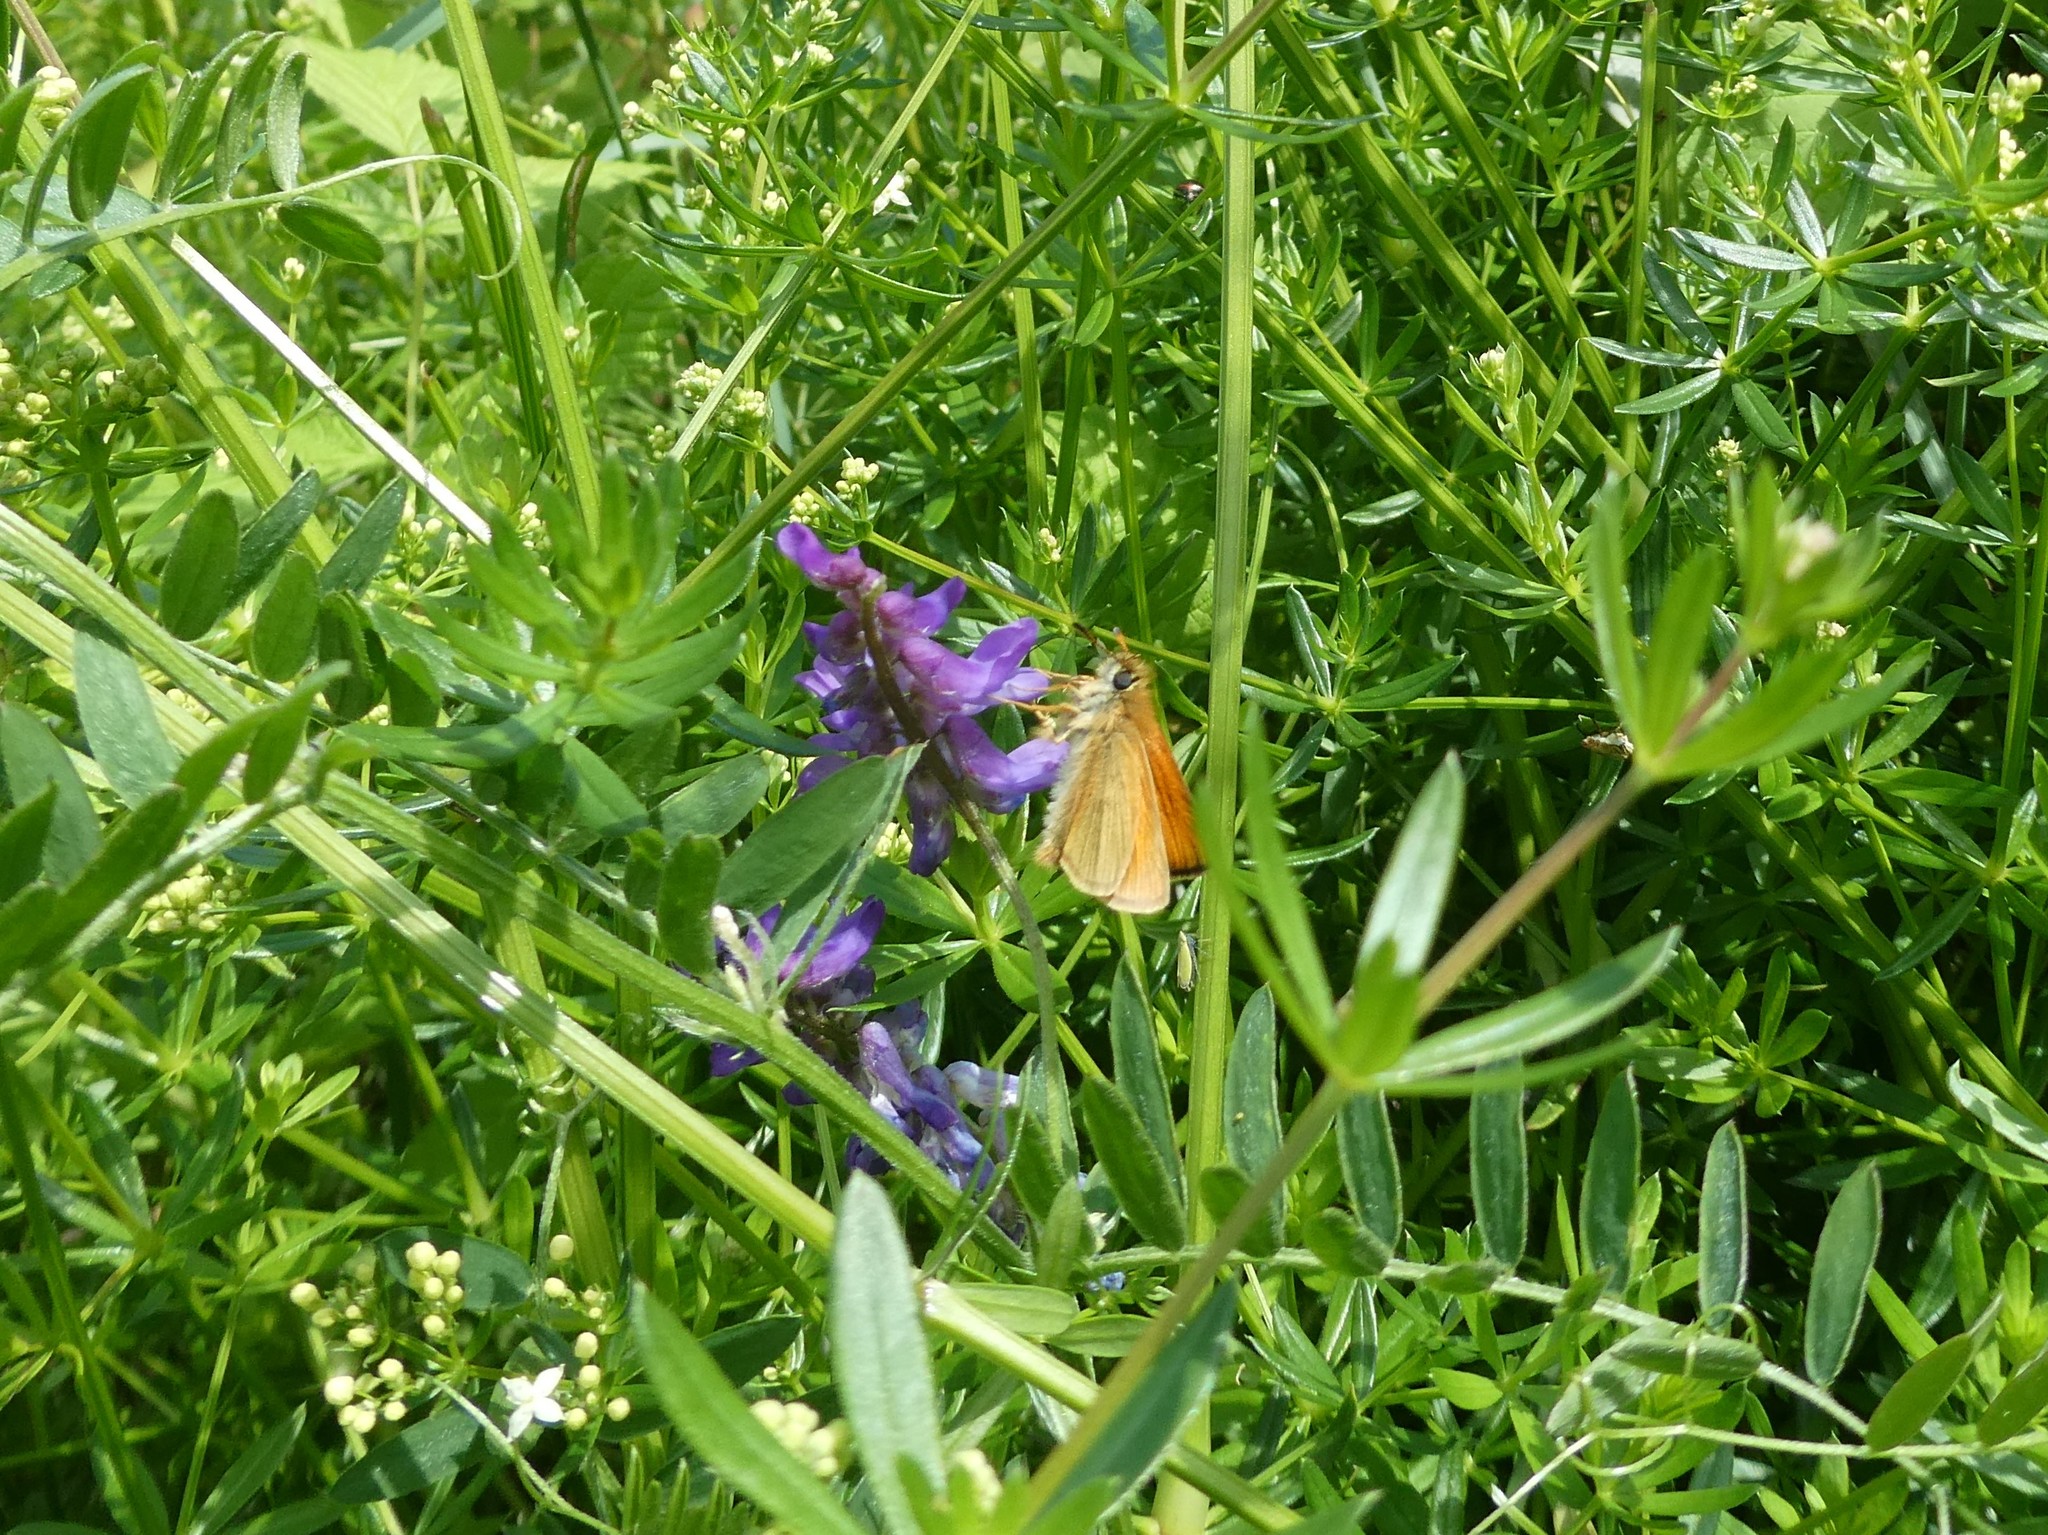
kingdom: Animalia
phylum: Arthropoda
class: Insecta
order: Lepidoptera
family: Hesperiidae
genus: Thymelicus
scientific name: Thymelicus lineola
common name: Essex skipper
